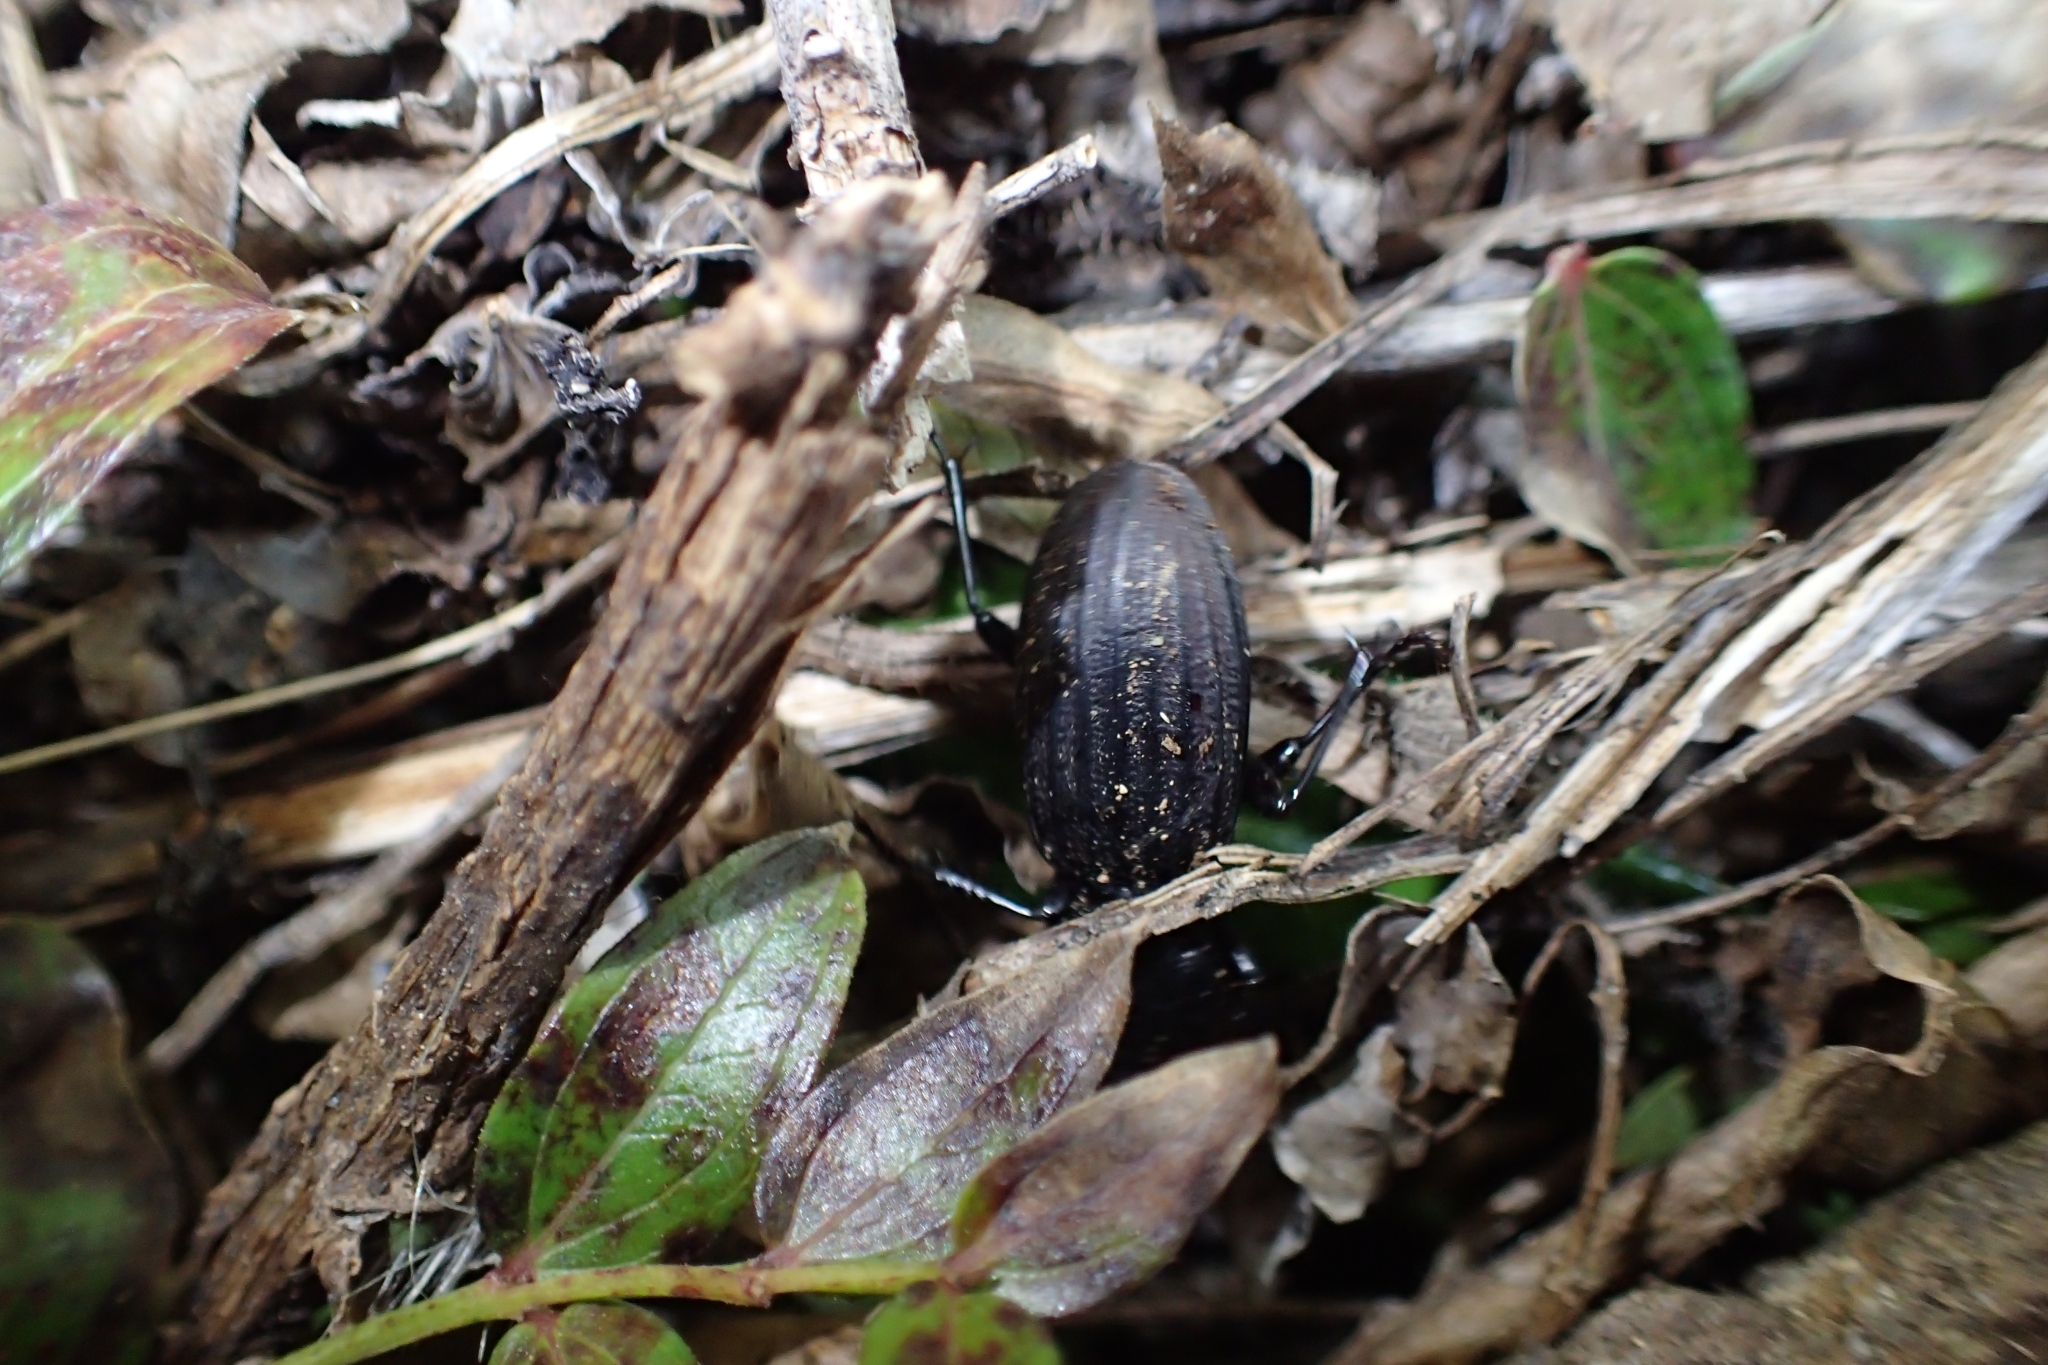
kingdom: Animalia
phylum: Arthropoda
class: Insecta
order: Coleoptera
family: Carabidae
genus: Mecodema
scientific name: Mecodema costipenne
